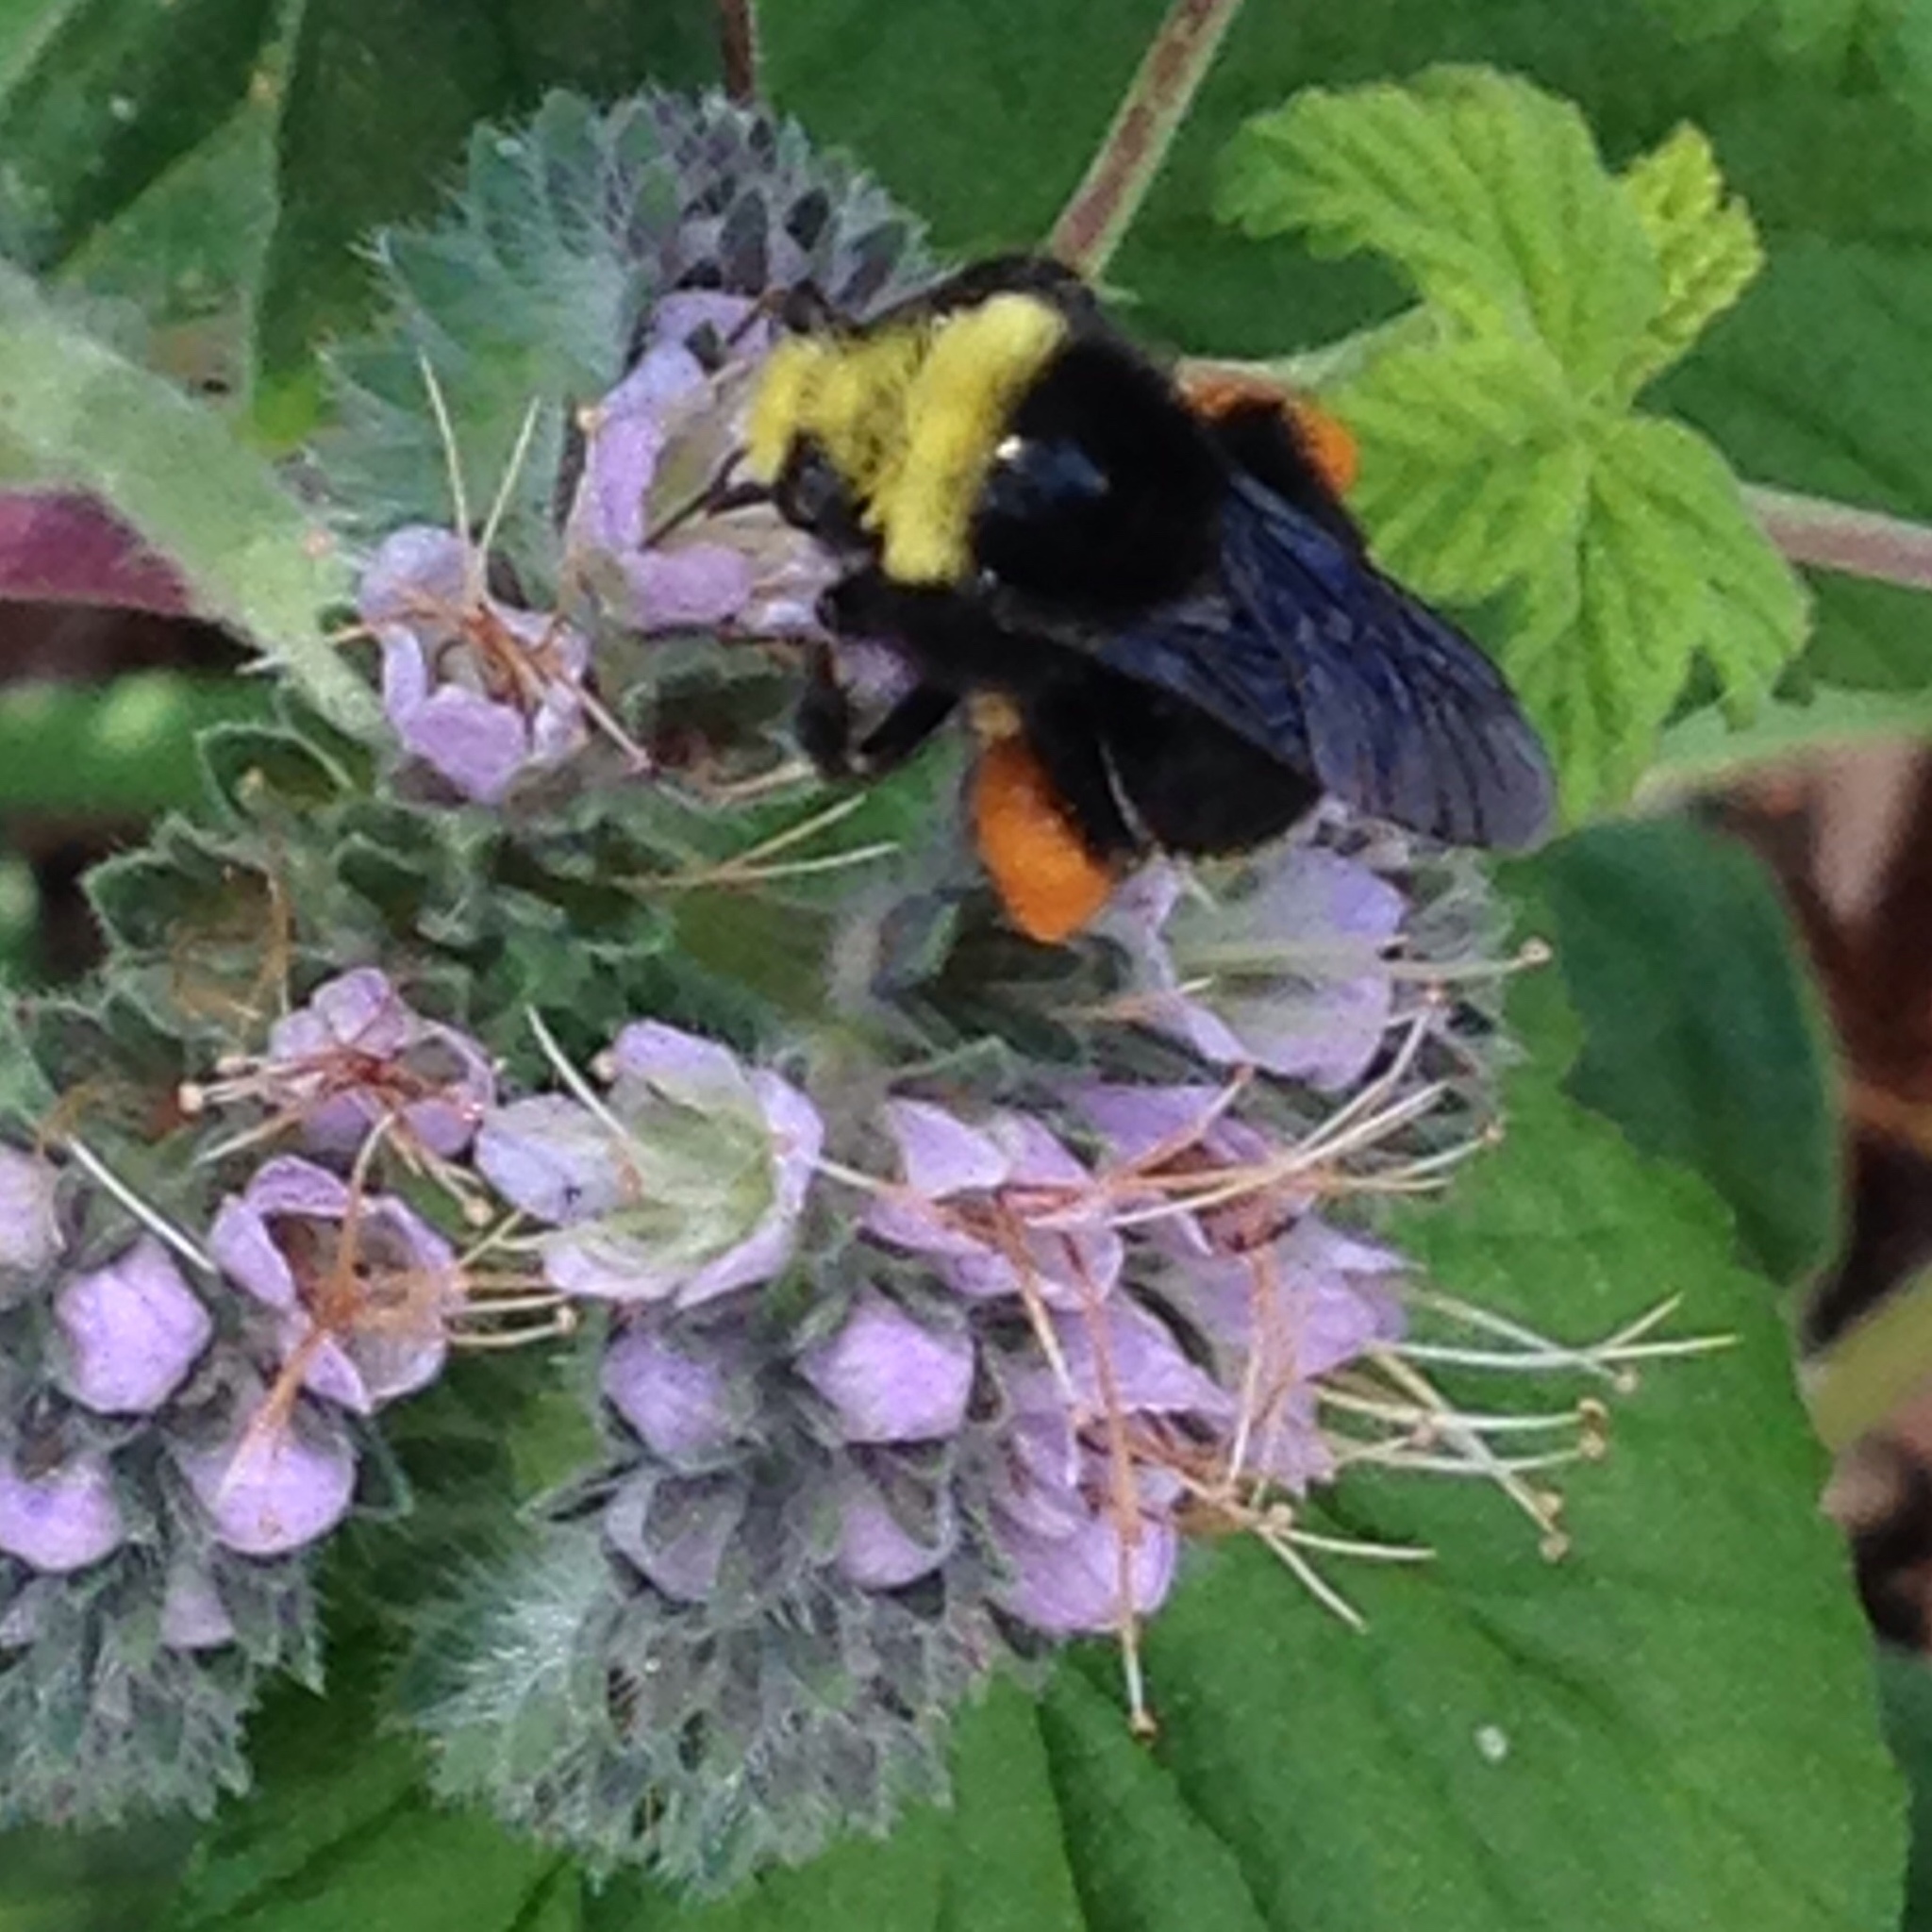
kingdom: Animalia
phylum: Arthropoda
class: Insecta
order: Hymenoptera
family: Apidae
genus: Bombus
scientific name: Bombus vosnesenskii
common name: Vosnesensky bumble bee
